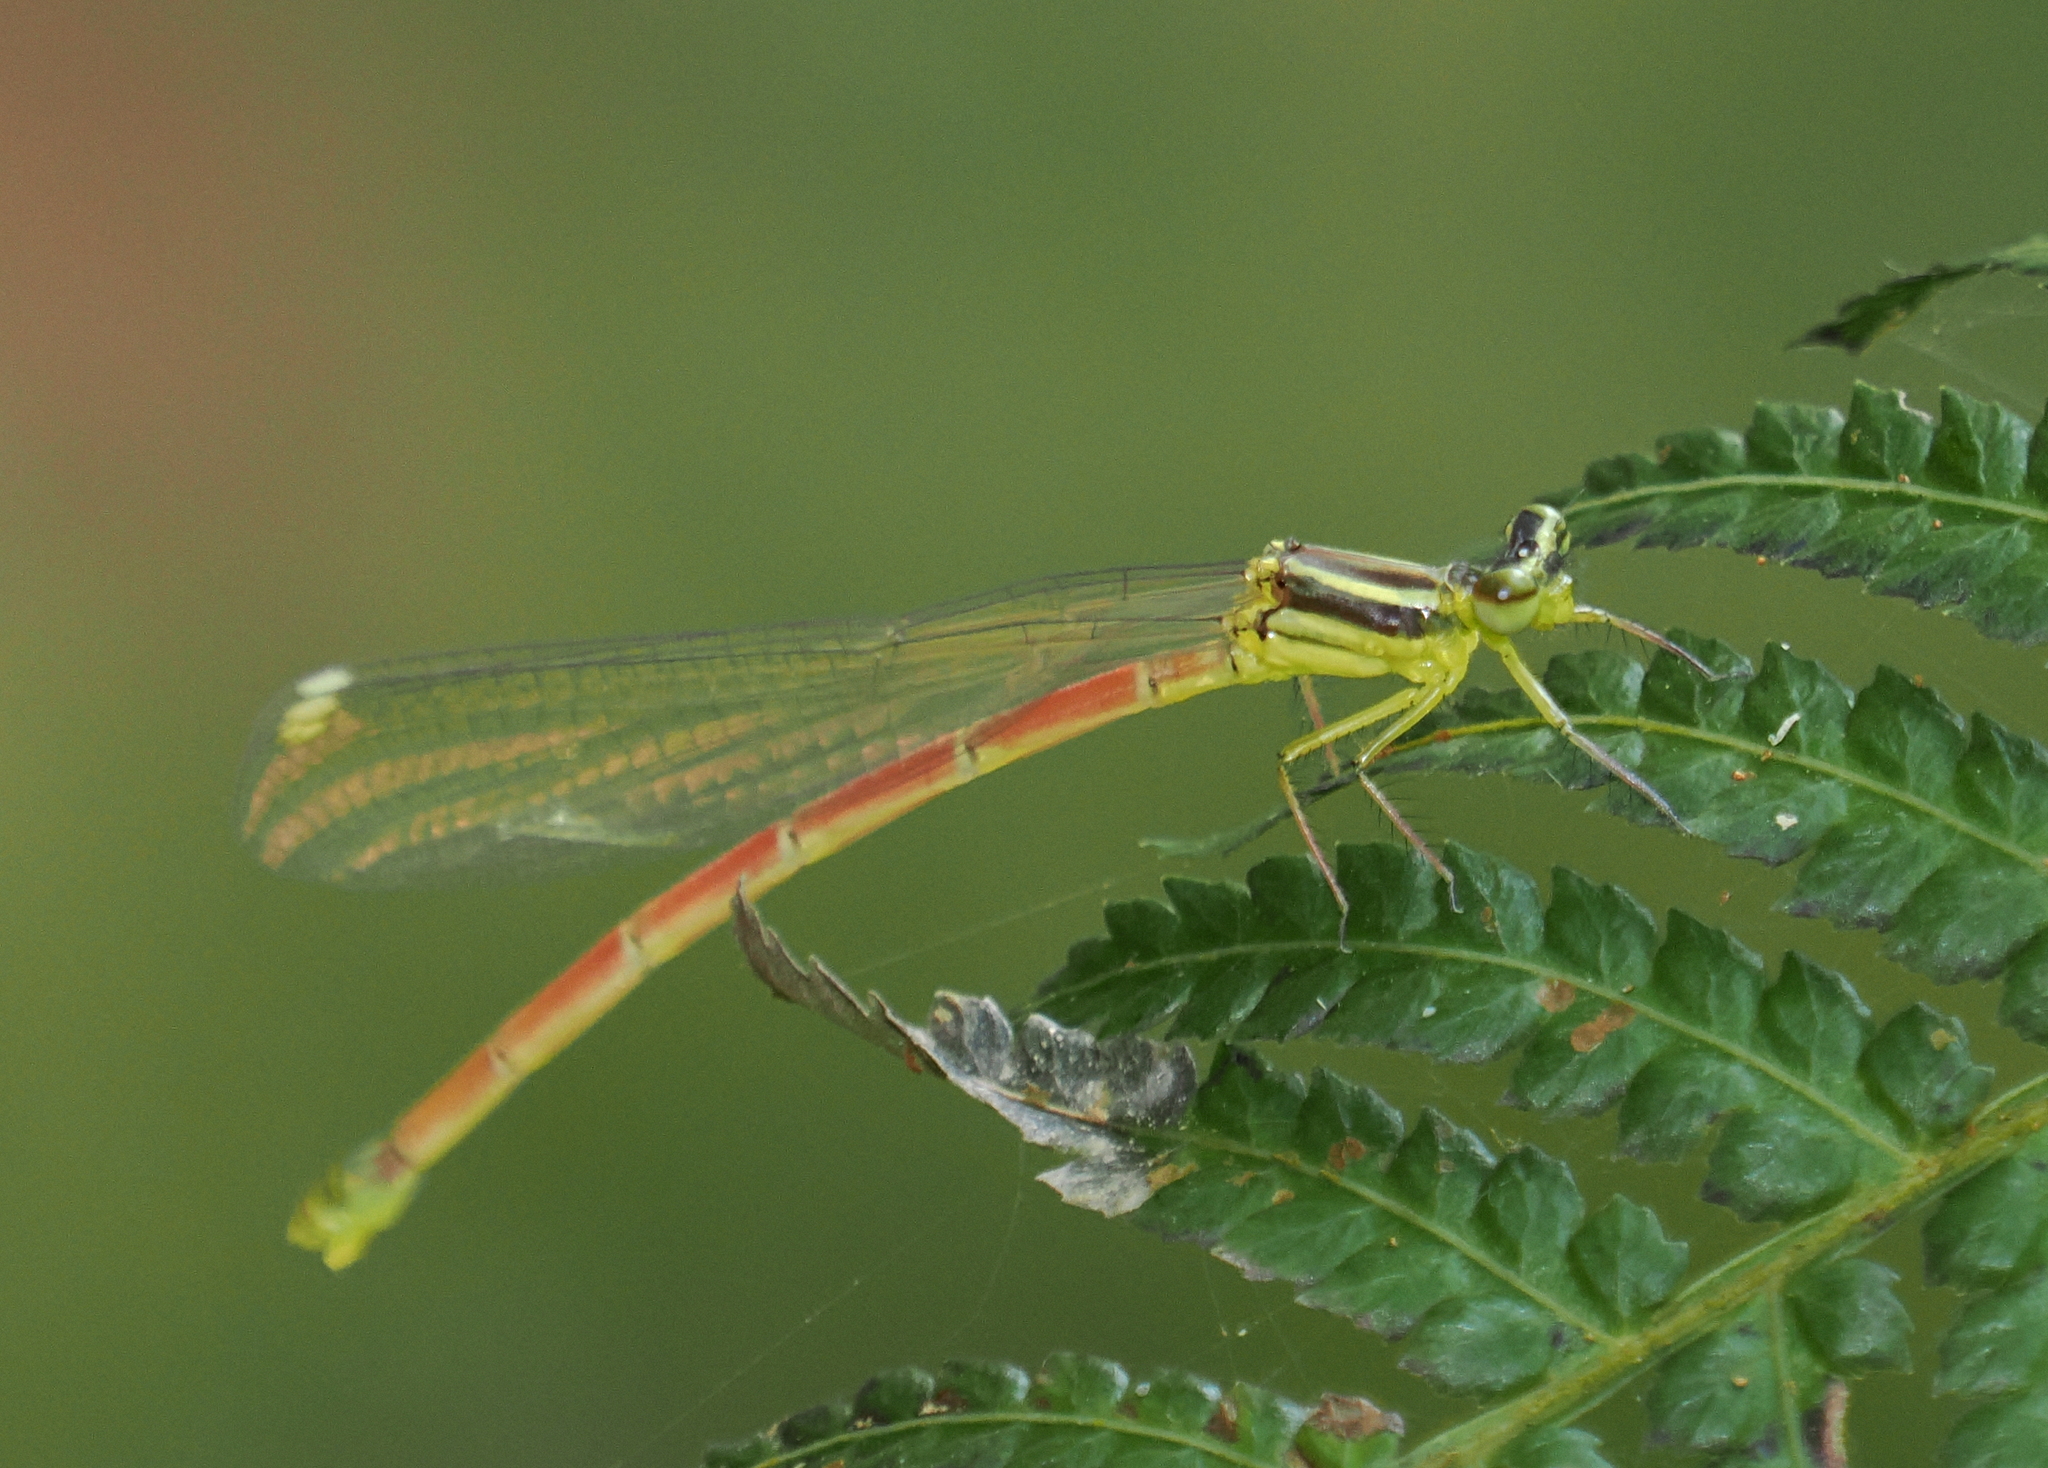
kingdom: Animalia
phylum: Arthropoda
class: Insecta
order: Odonata
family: Platycnemididae
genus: Calicnemia
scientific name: Calicnemia miles
